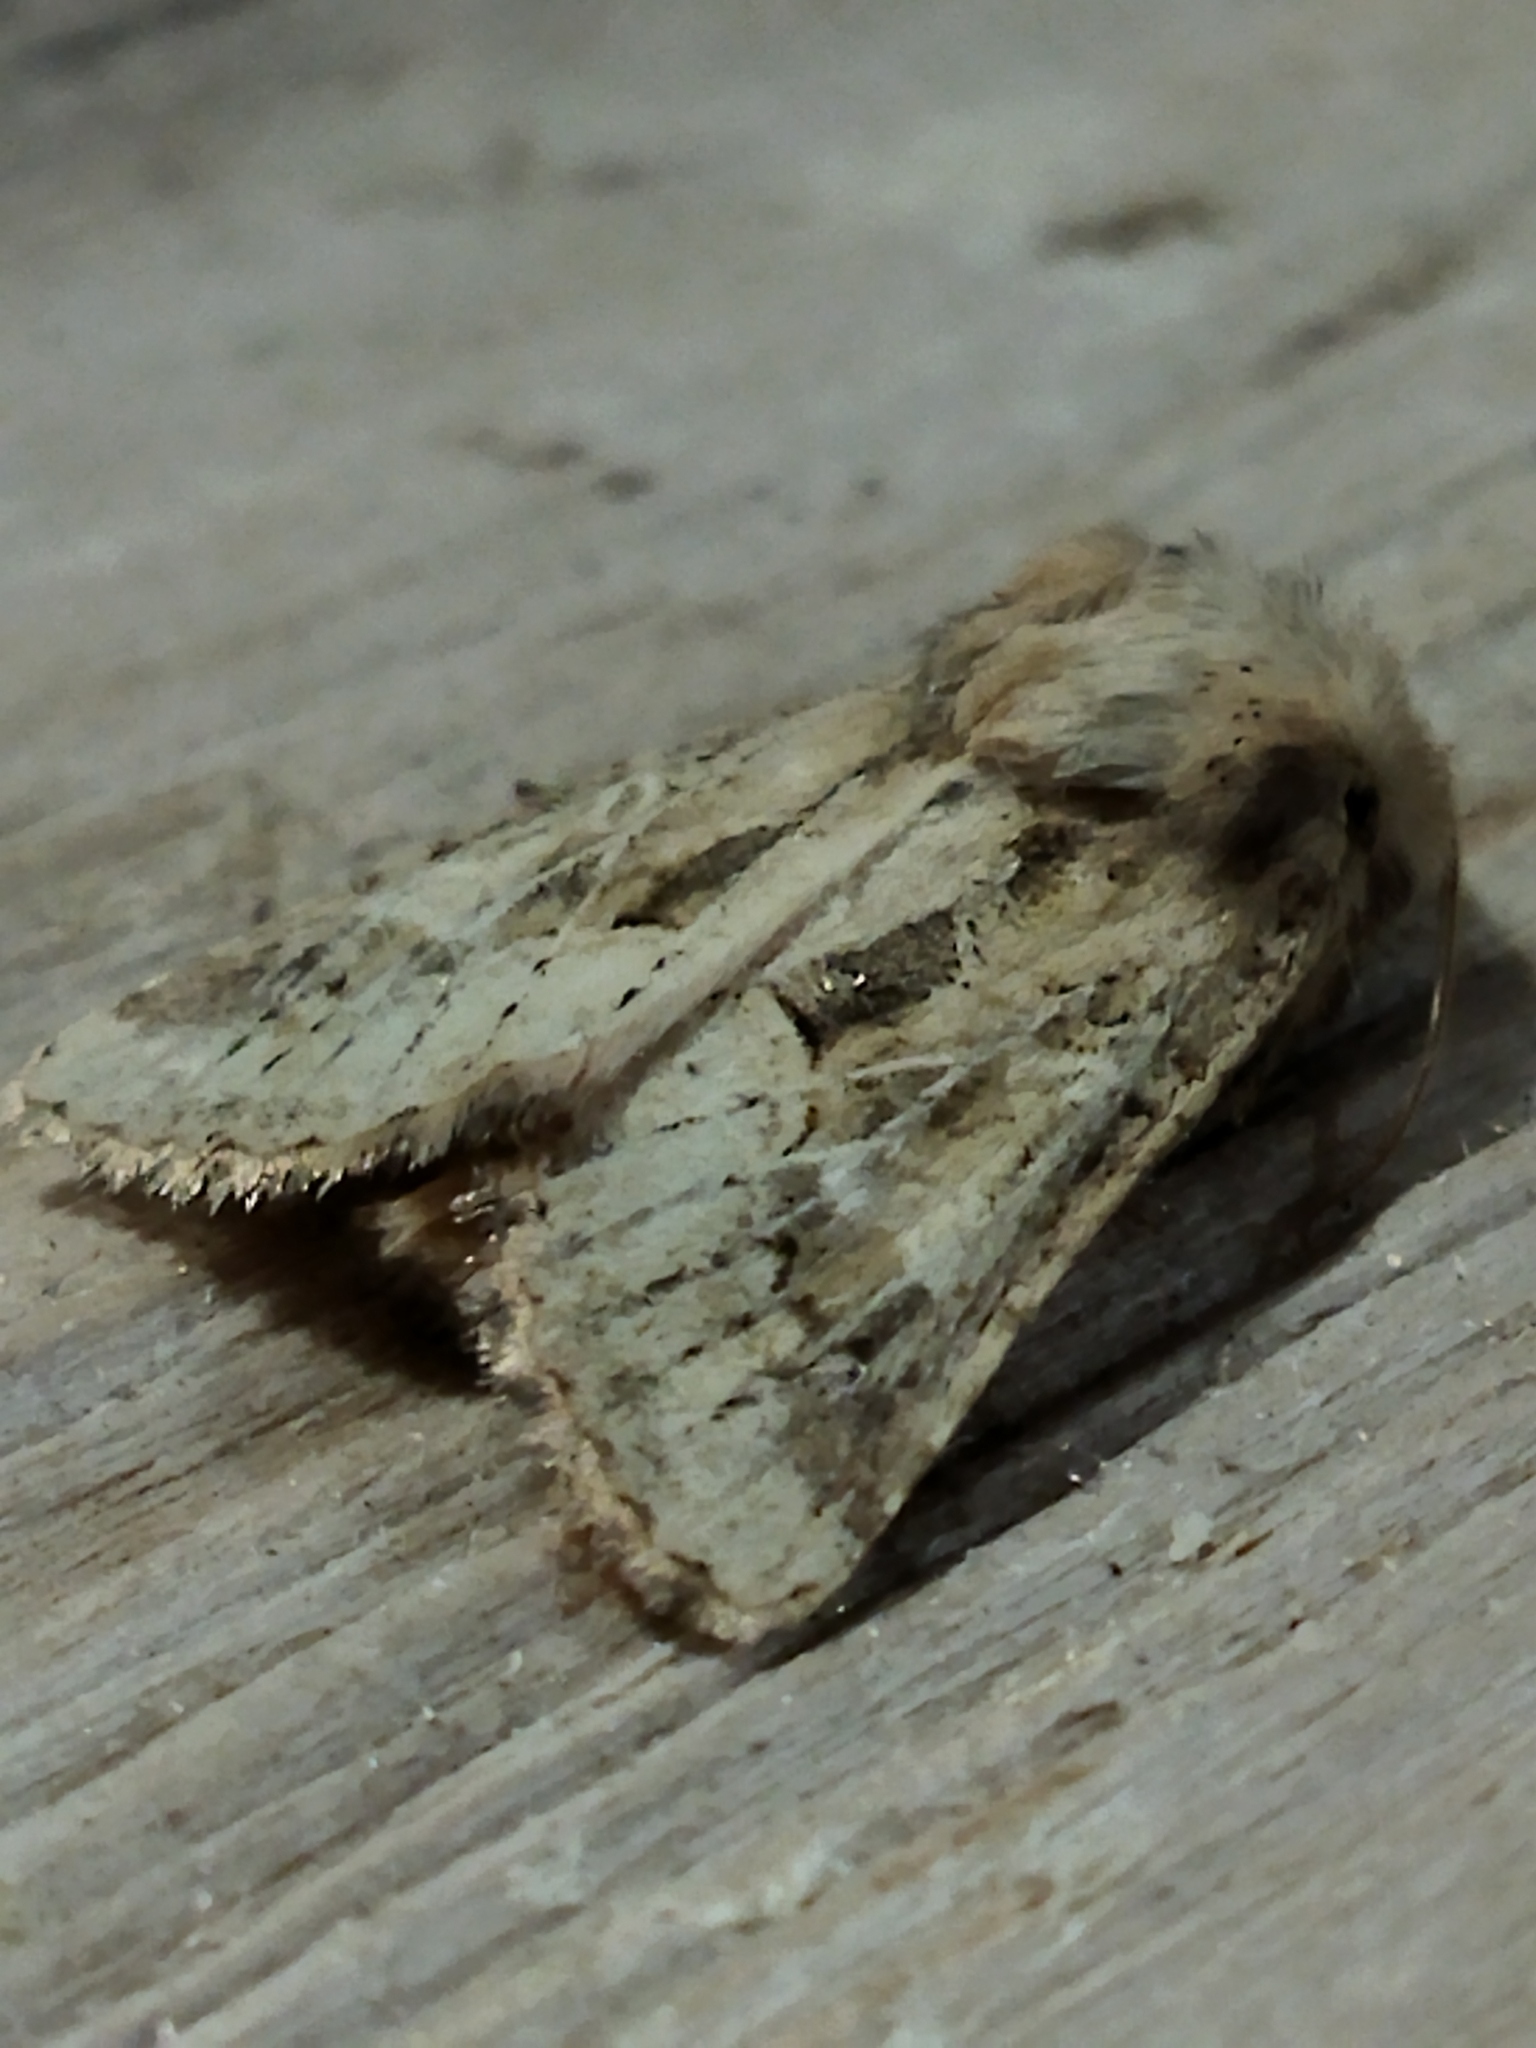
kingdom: Animalia
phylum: Arthropoda
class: Insecta
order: Lepidoptera
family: Noctuidae
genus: Luperina
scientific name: Luperina dumerilii
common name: Dumeril's rustic
